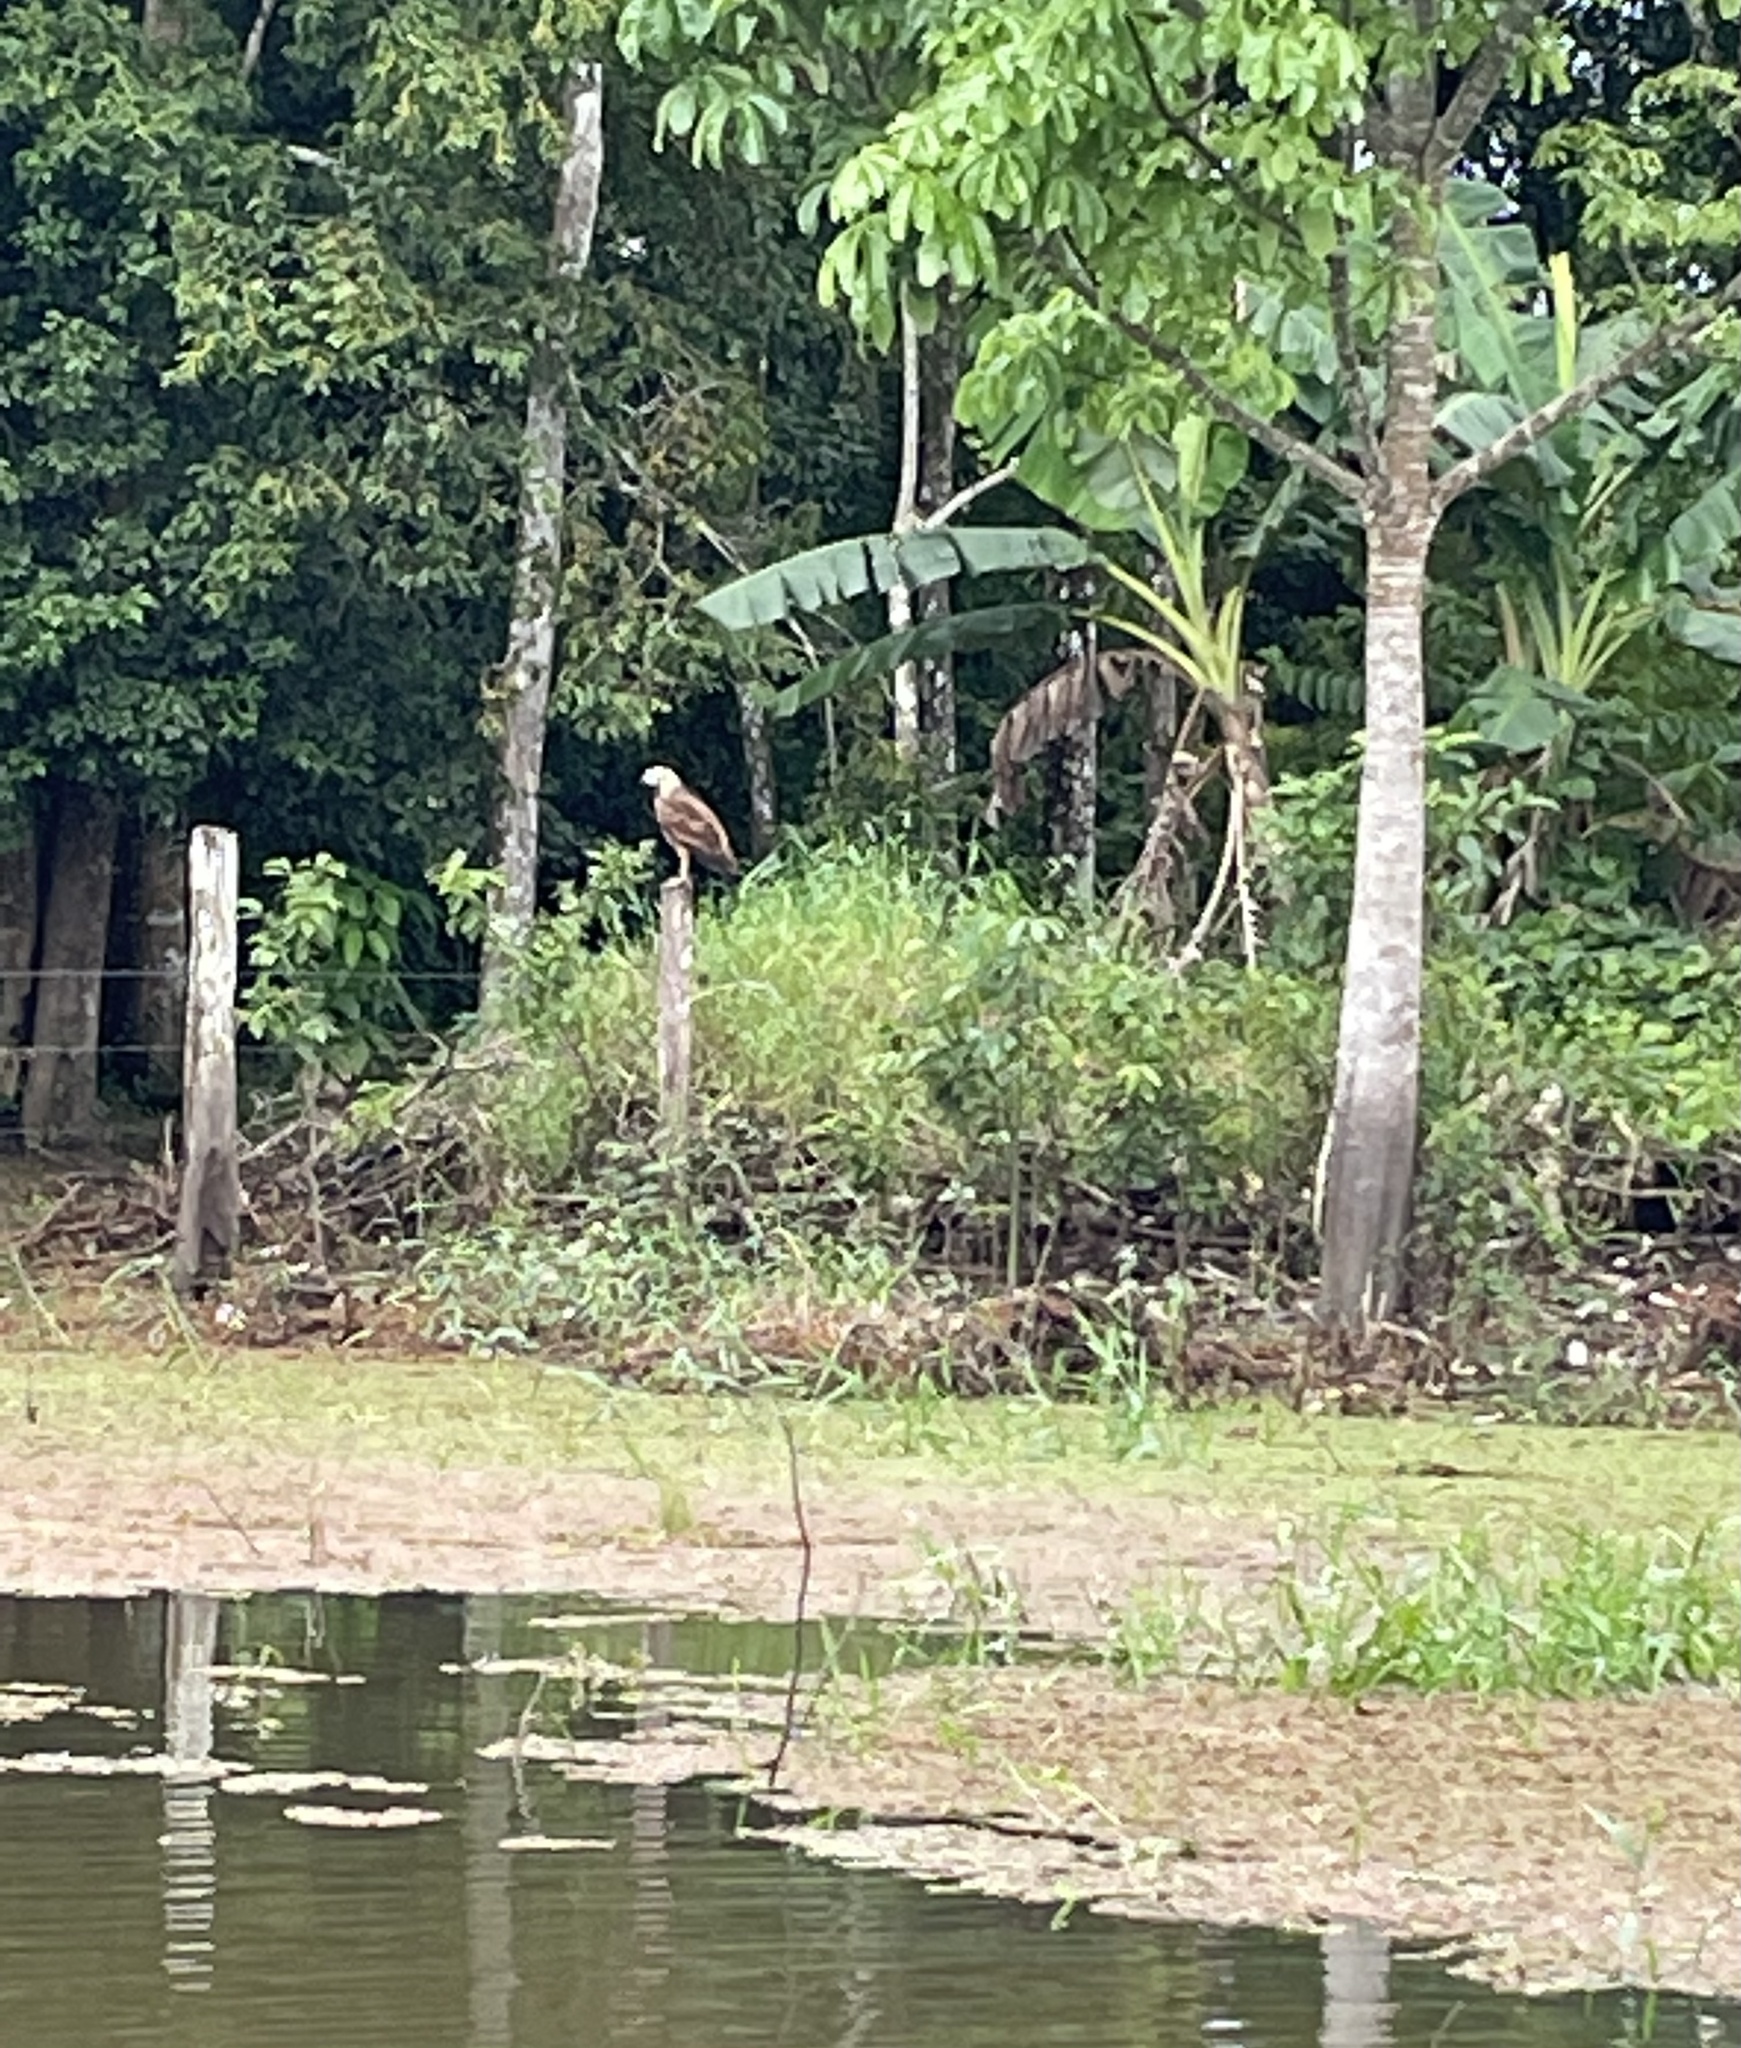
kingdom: Animalia
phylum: Chordata
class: Aves
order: Accipitriformes
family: Accipitridae
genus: Busarellus
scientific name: Busarellus nigricollis
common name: Black-collared hawk
